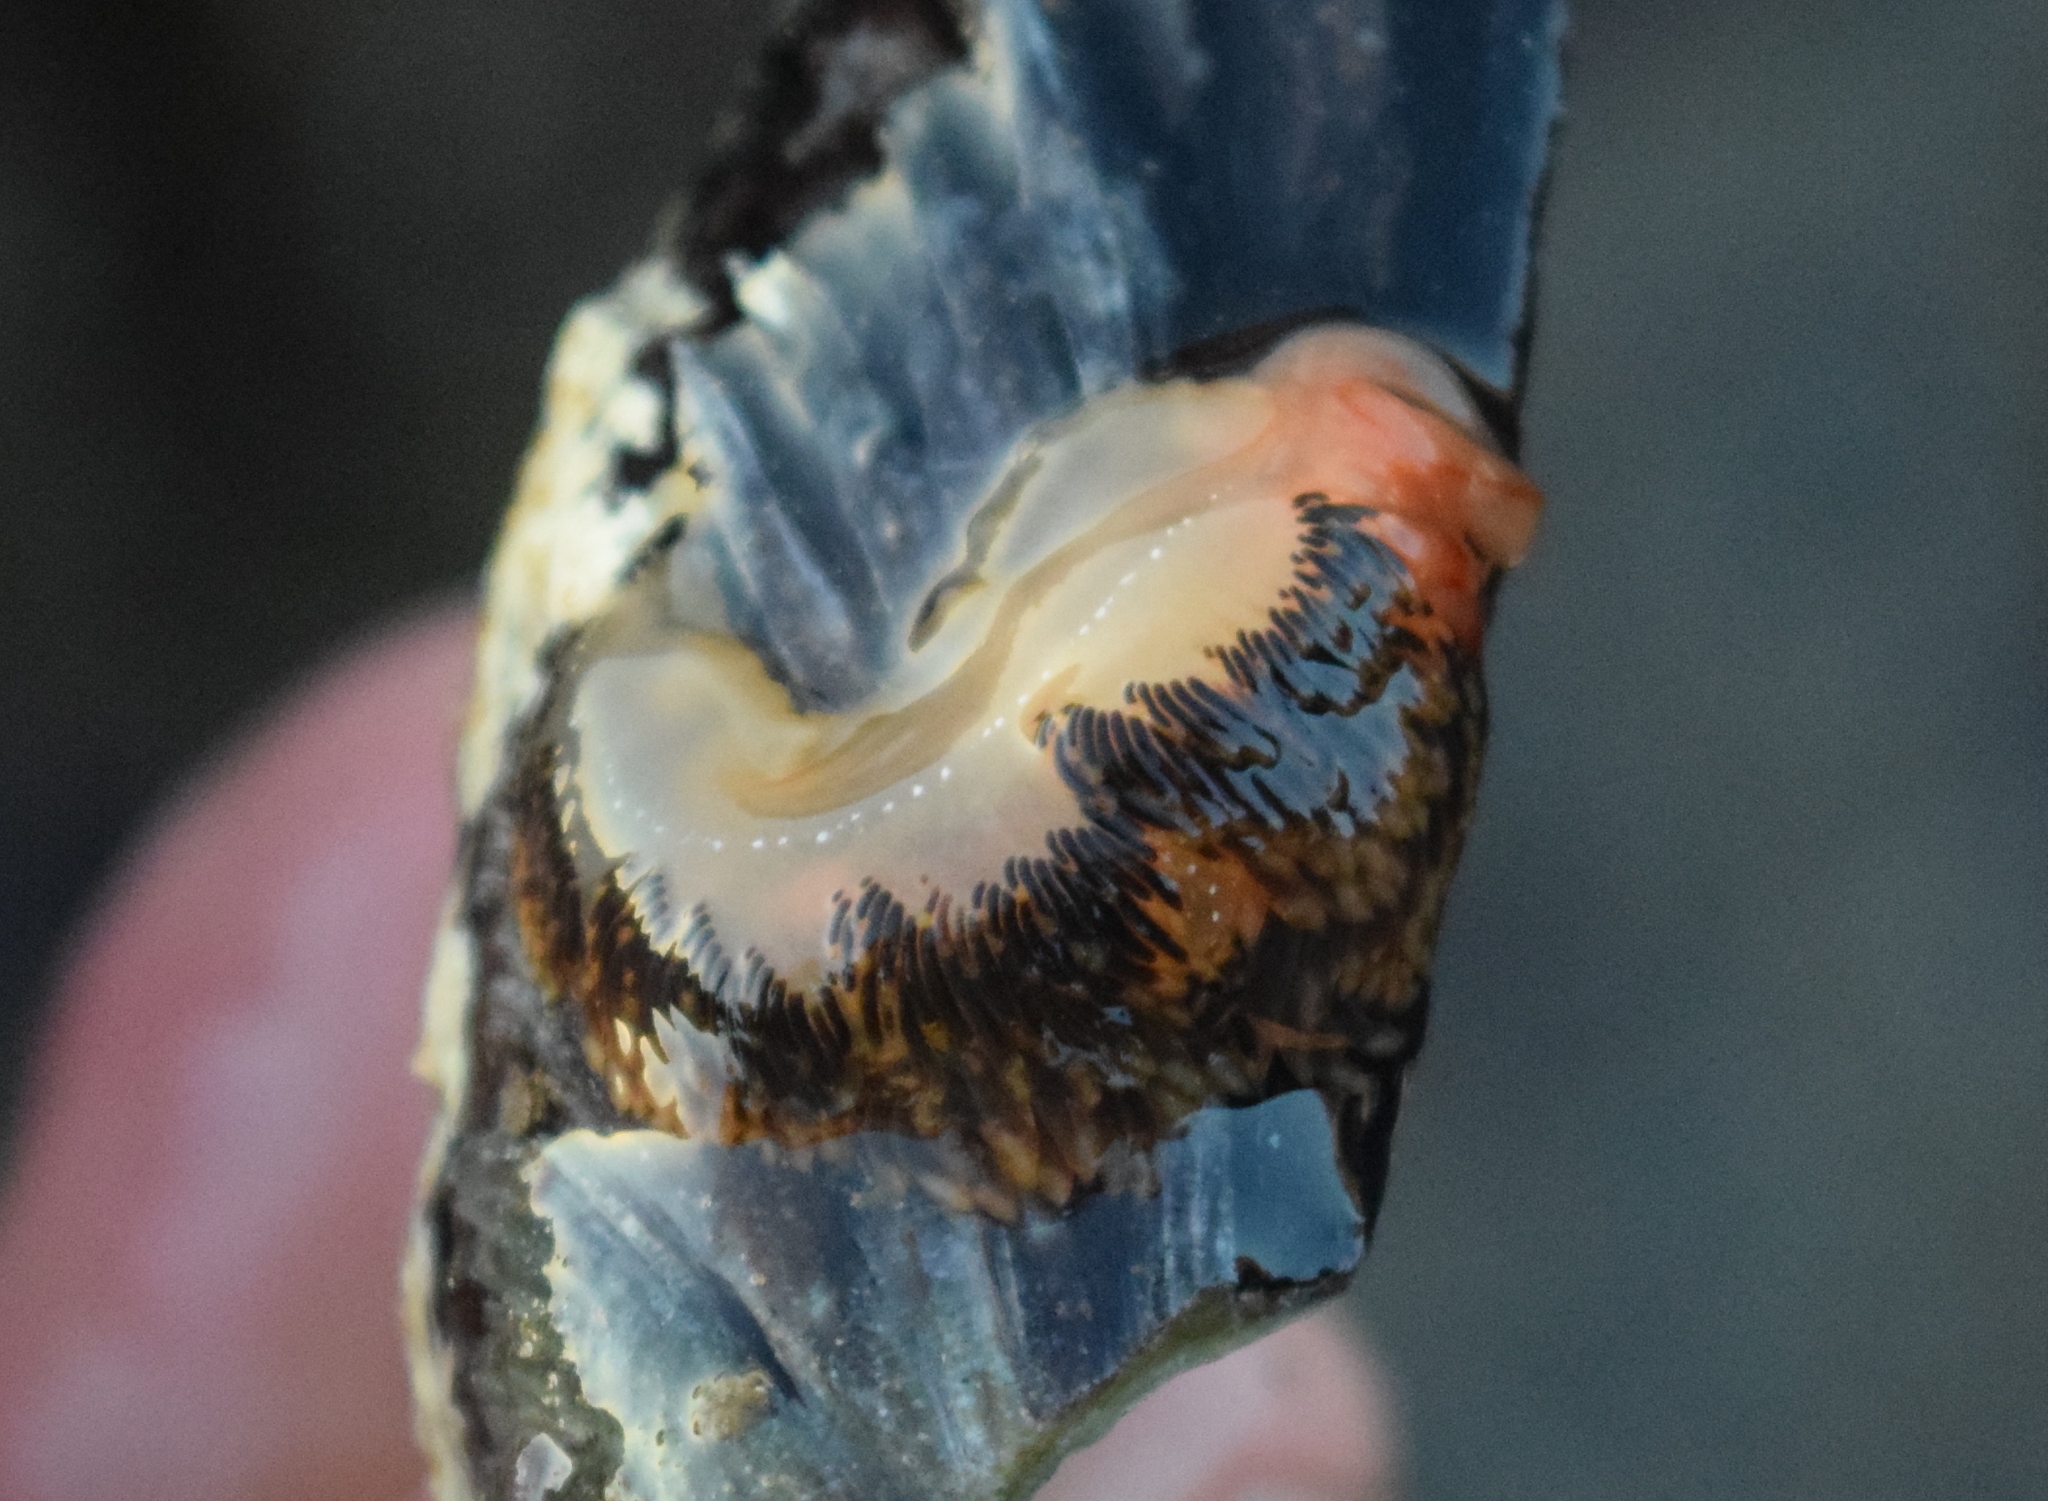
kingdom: Animalia
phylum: Mollusca
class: Gastropoda
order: Nudibranchia
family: Facelinidae
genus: Phidiana
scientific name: Phidiana hiltoni
